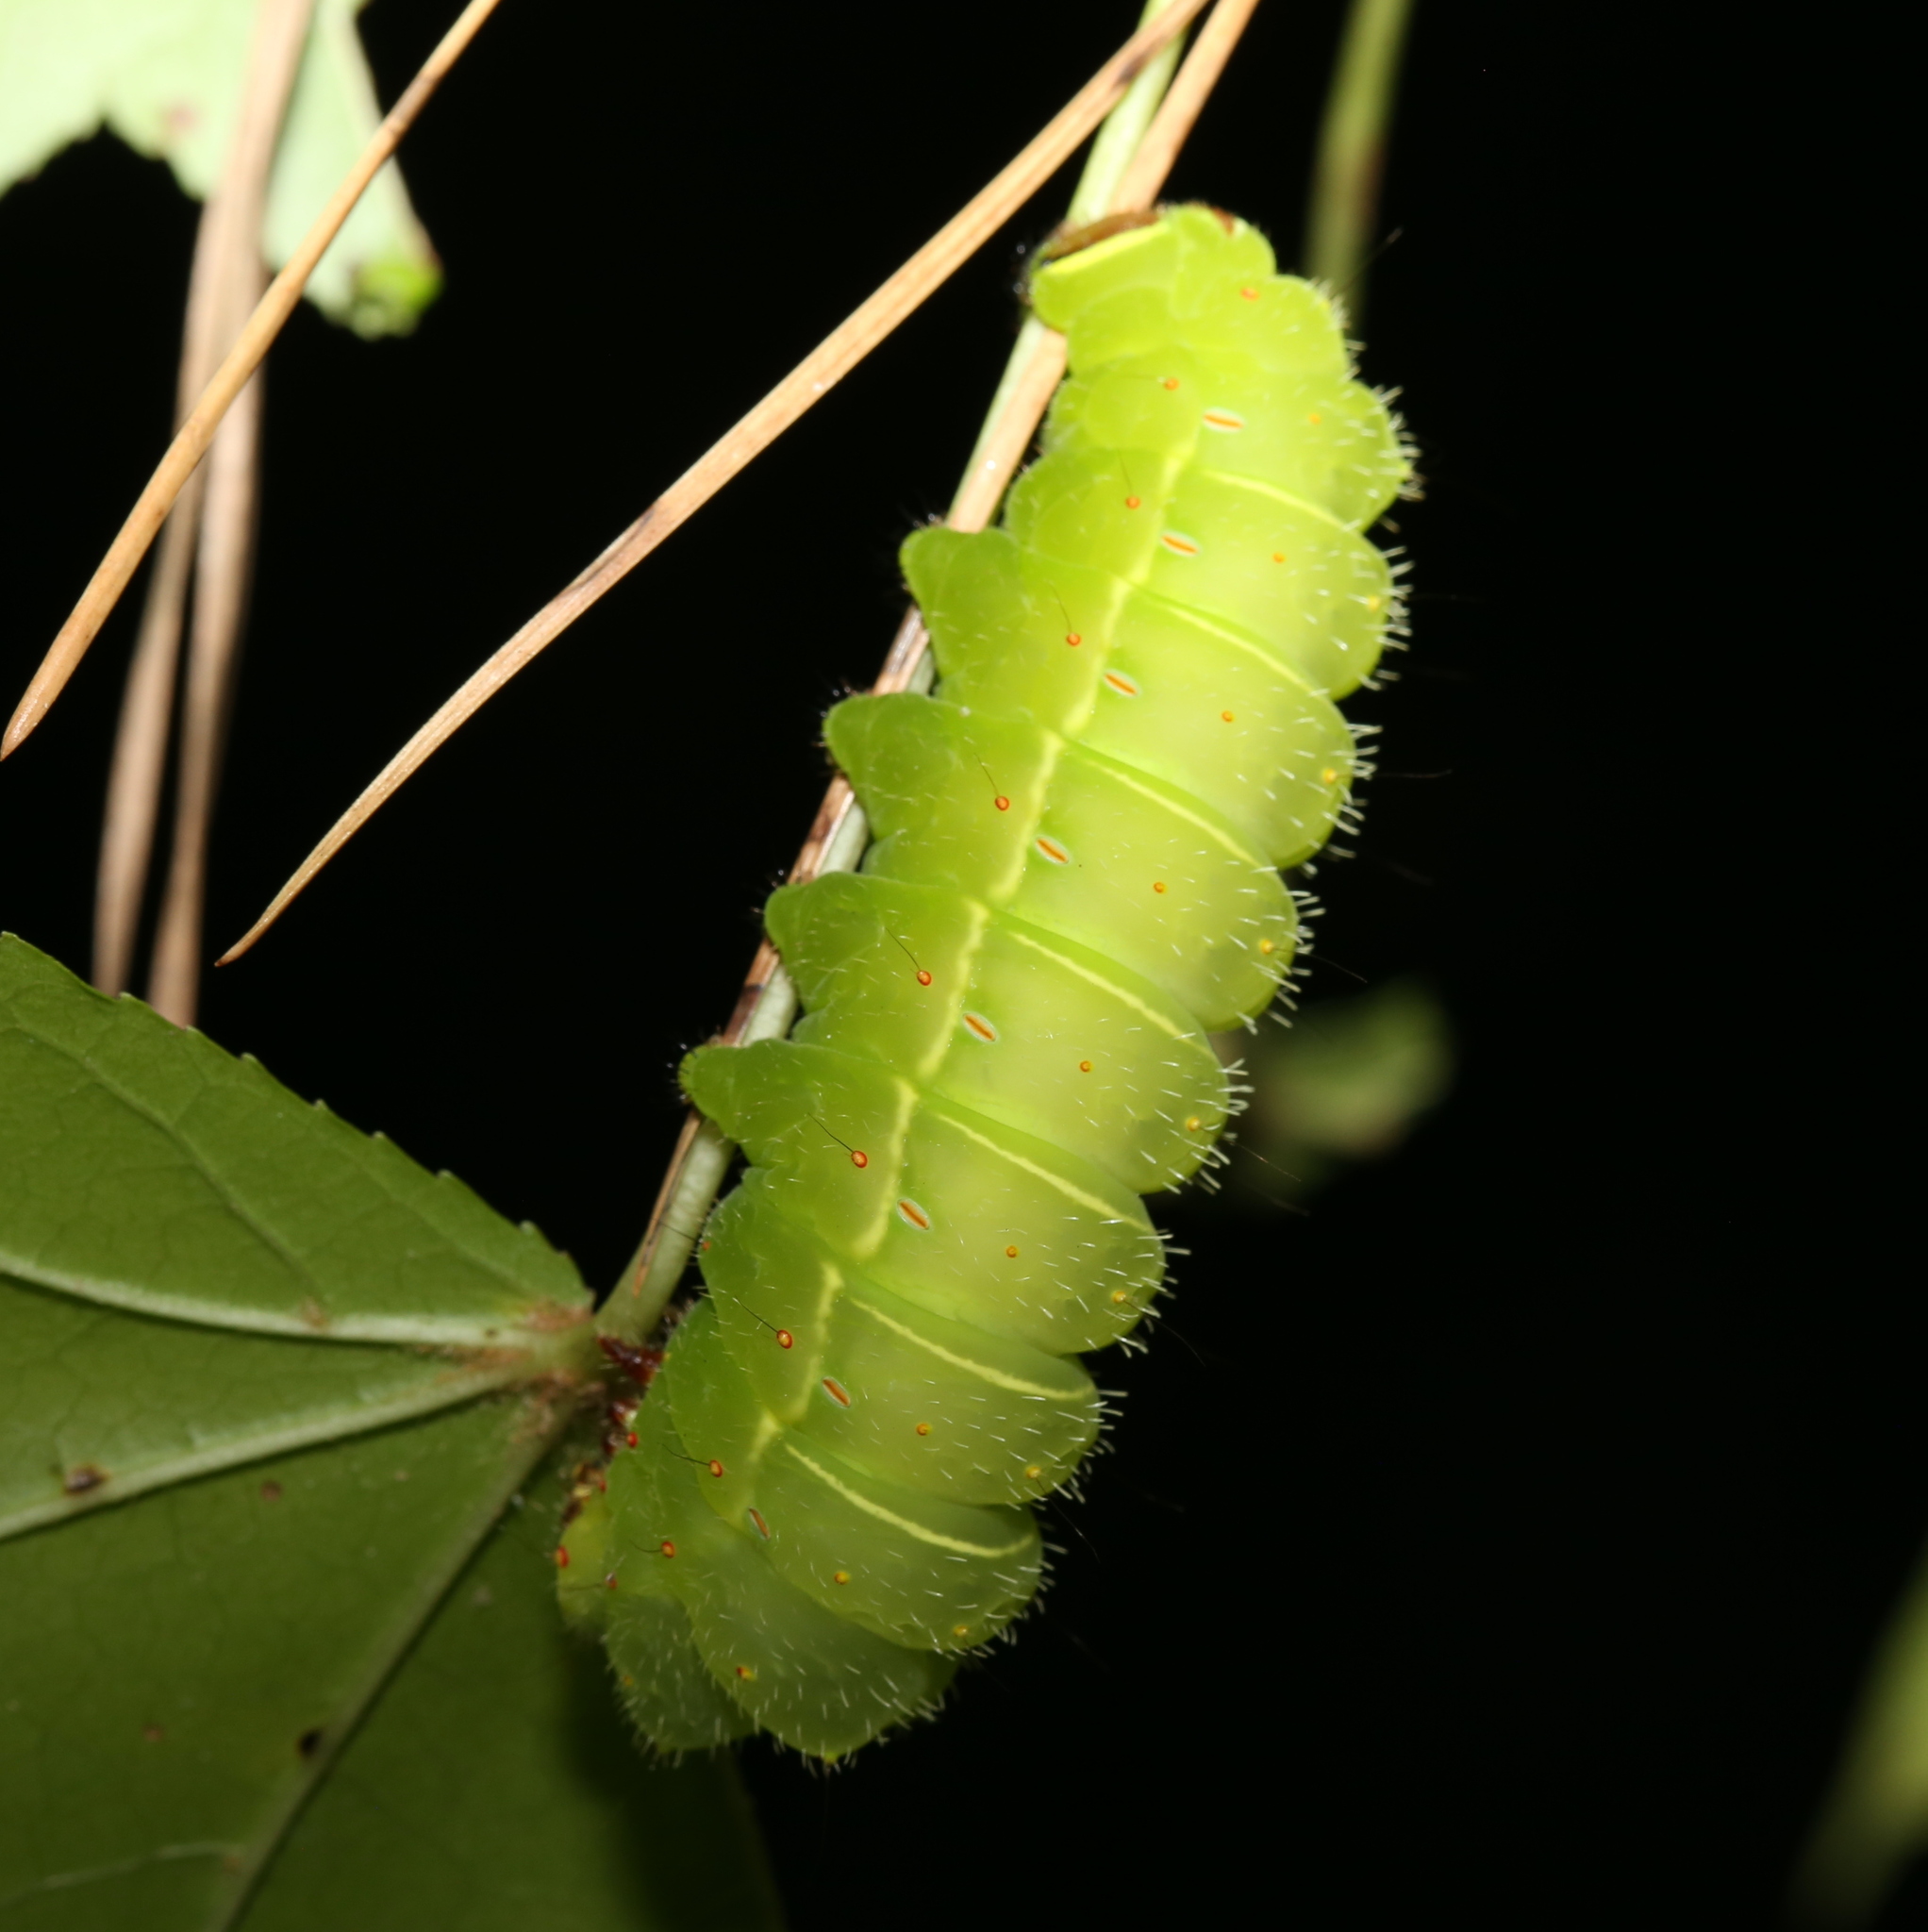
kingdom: Animalia
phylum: Arthropoda
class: Insecta
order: Lepidoptera
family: Saturniidae
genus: Actias
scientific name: Actias luna
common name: Luna moth
